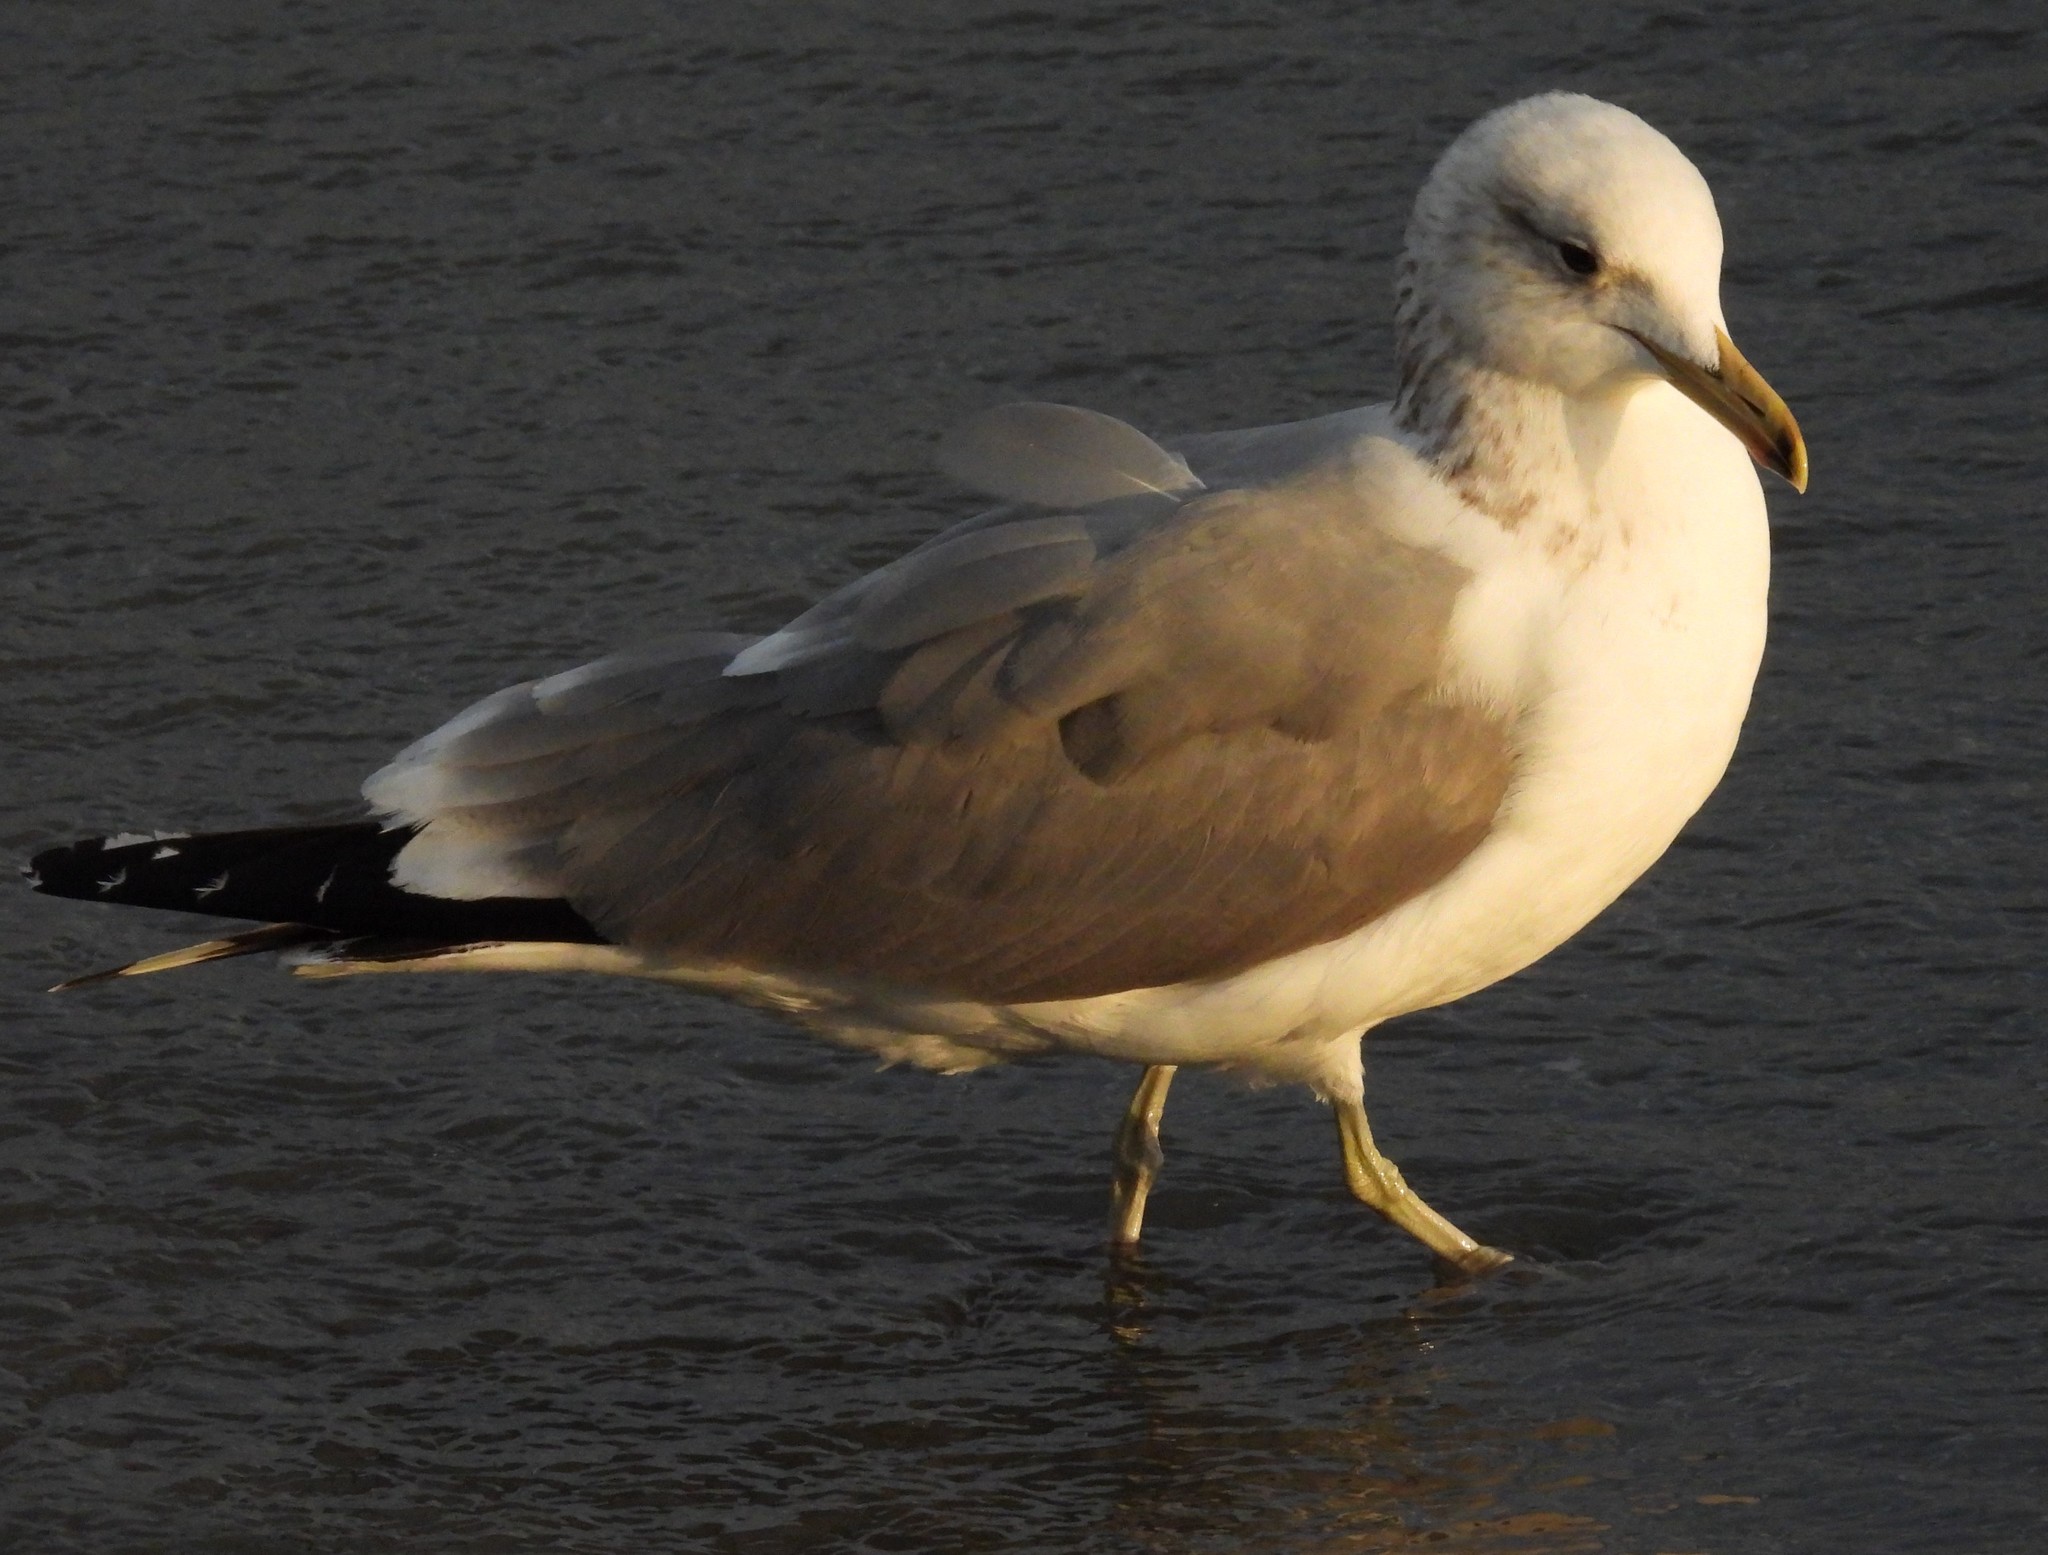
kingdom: Animalia
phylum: Chordata
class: Aves
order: Charadriiformes
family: Laridae
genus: Larus
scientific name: Larus californicus
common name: California gull
